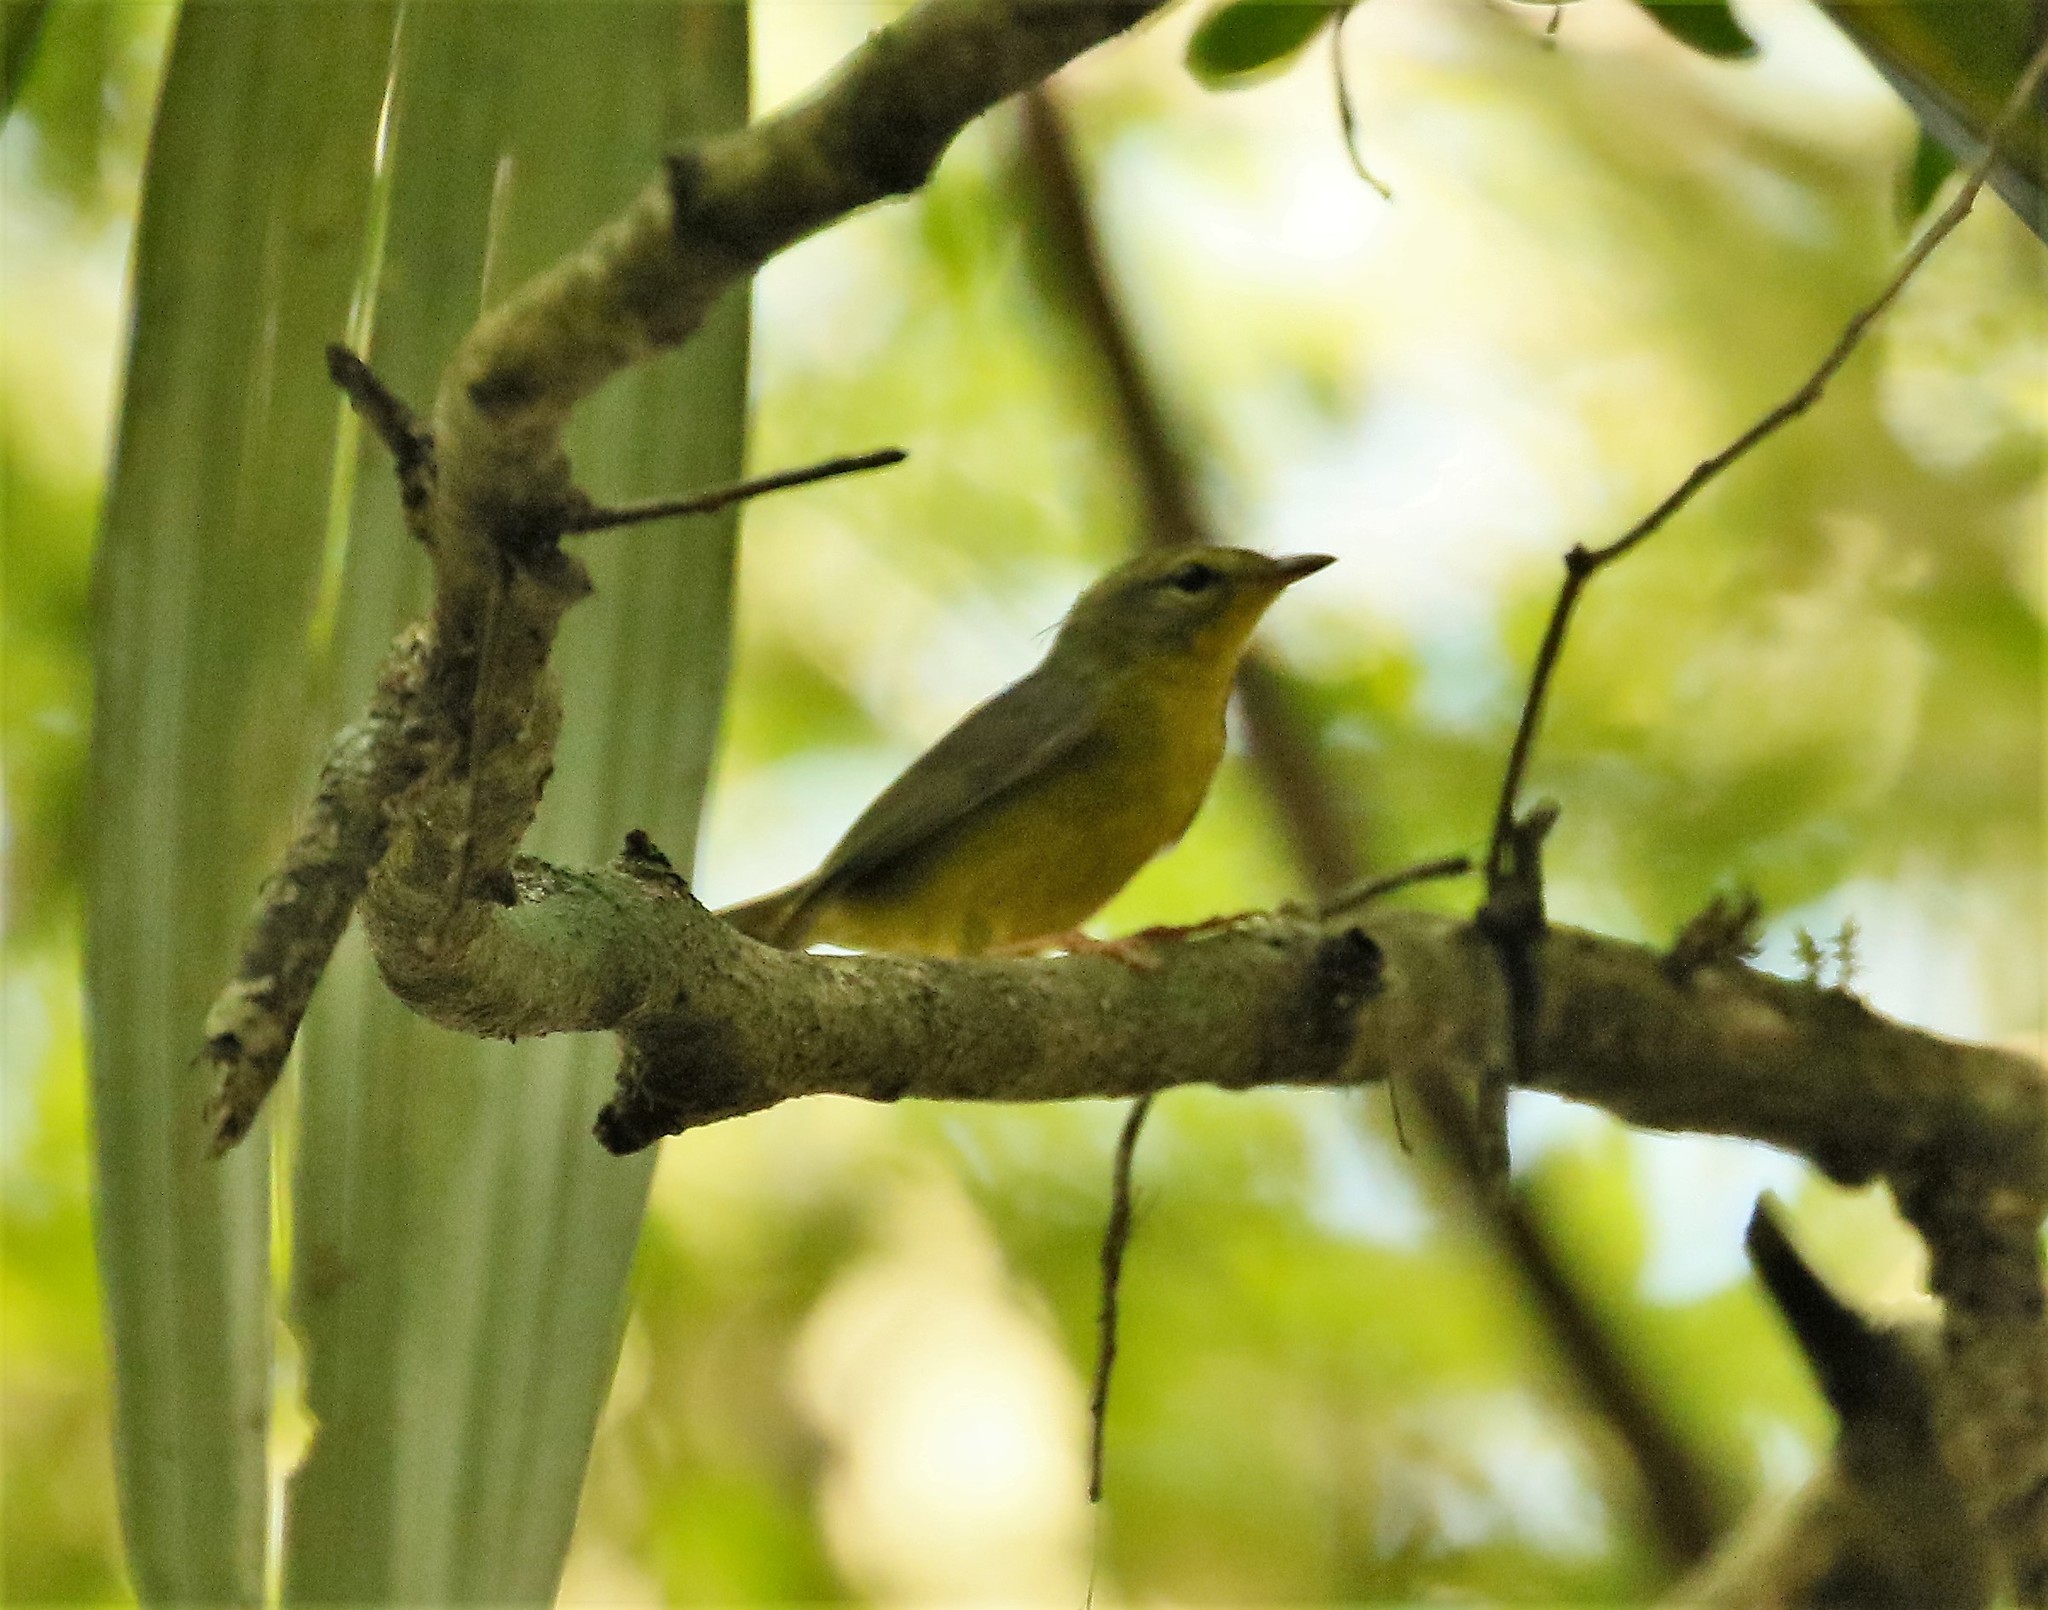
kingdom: Animalia
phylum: Chordata
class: Aves
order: Passeriformes
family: Parulidae
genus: Basileuterus
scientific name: Basileuterus culicivorus
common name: Golden-crowned warbler
